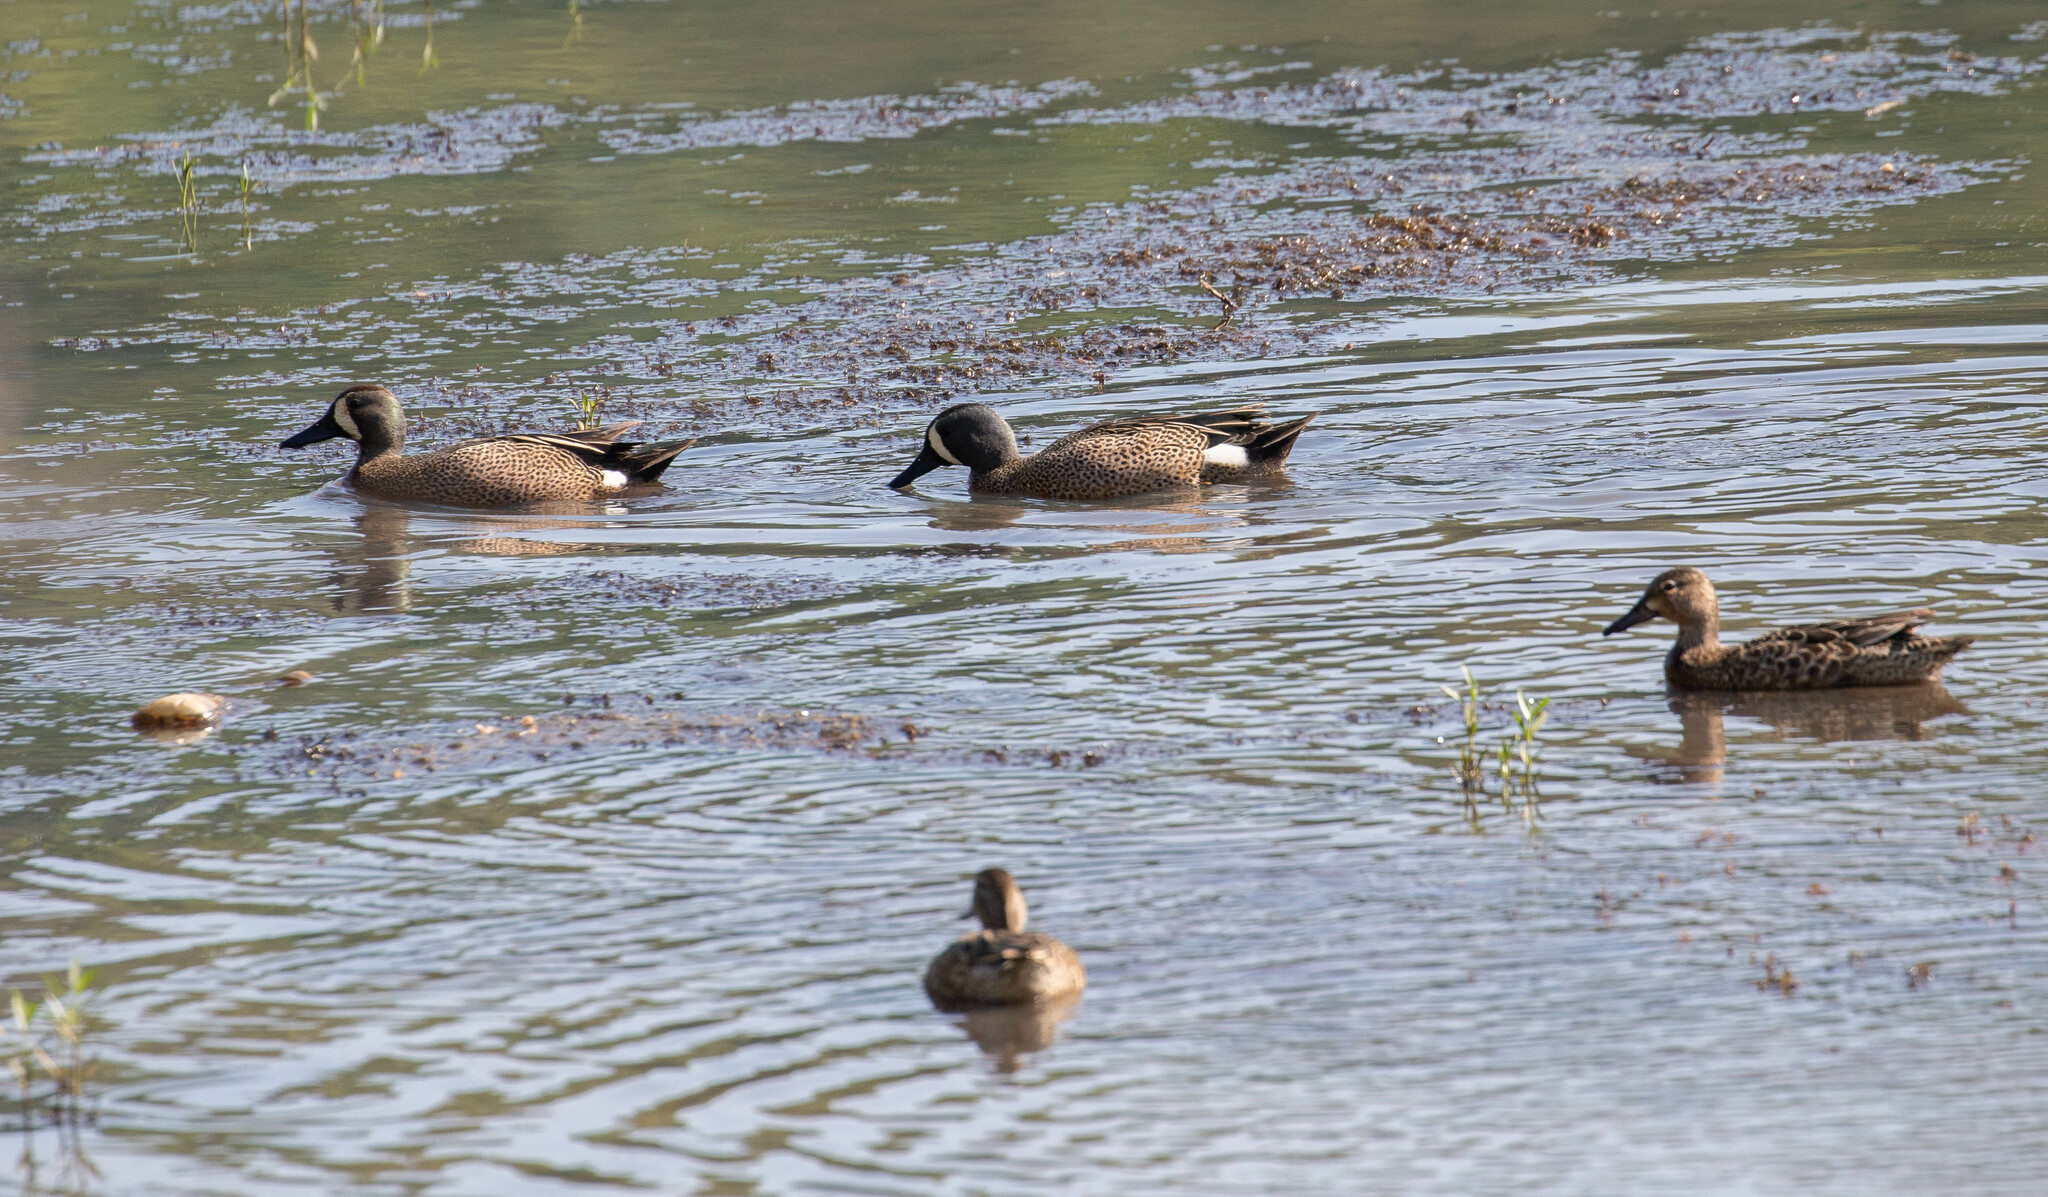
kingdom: Animalia
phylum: Chordata
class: Aves
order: Anseriformes
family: Anatidae
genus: Spatula
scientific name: Spatula discors
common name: Blue-winged teal
